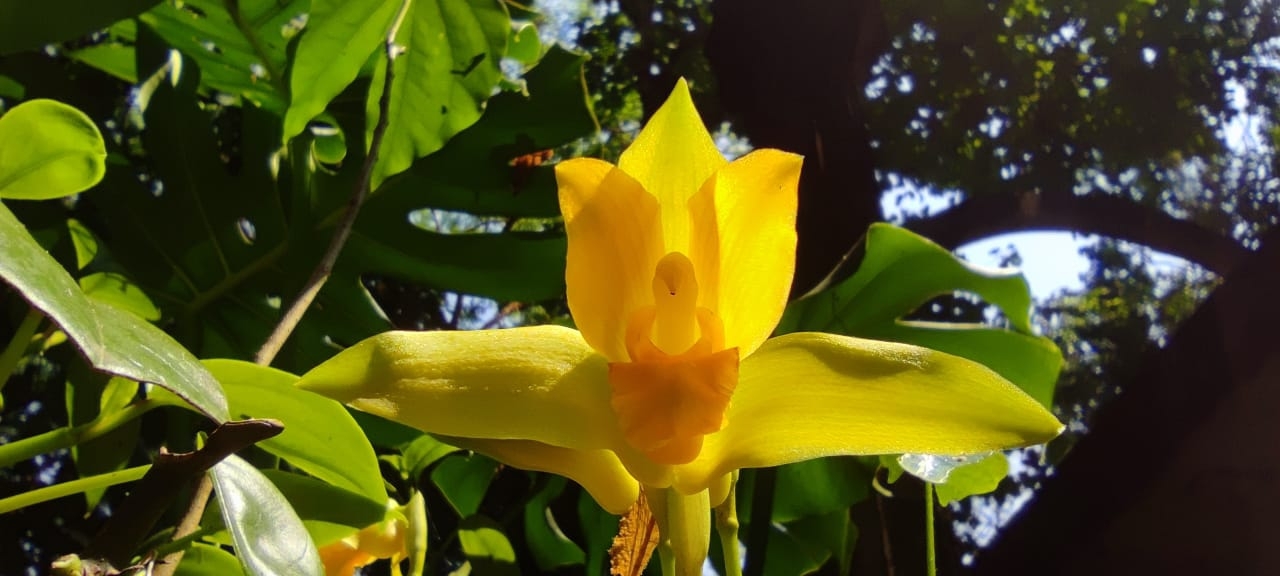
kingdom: Plantae
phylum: Tracheophyta
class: Liliopsida
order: Asparagales
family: Orchidaceae
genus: Lycaste
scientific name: Lycaste consobrina
